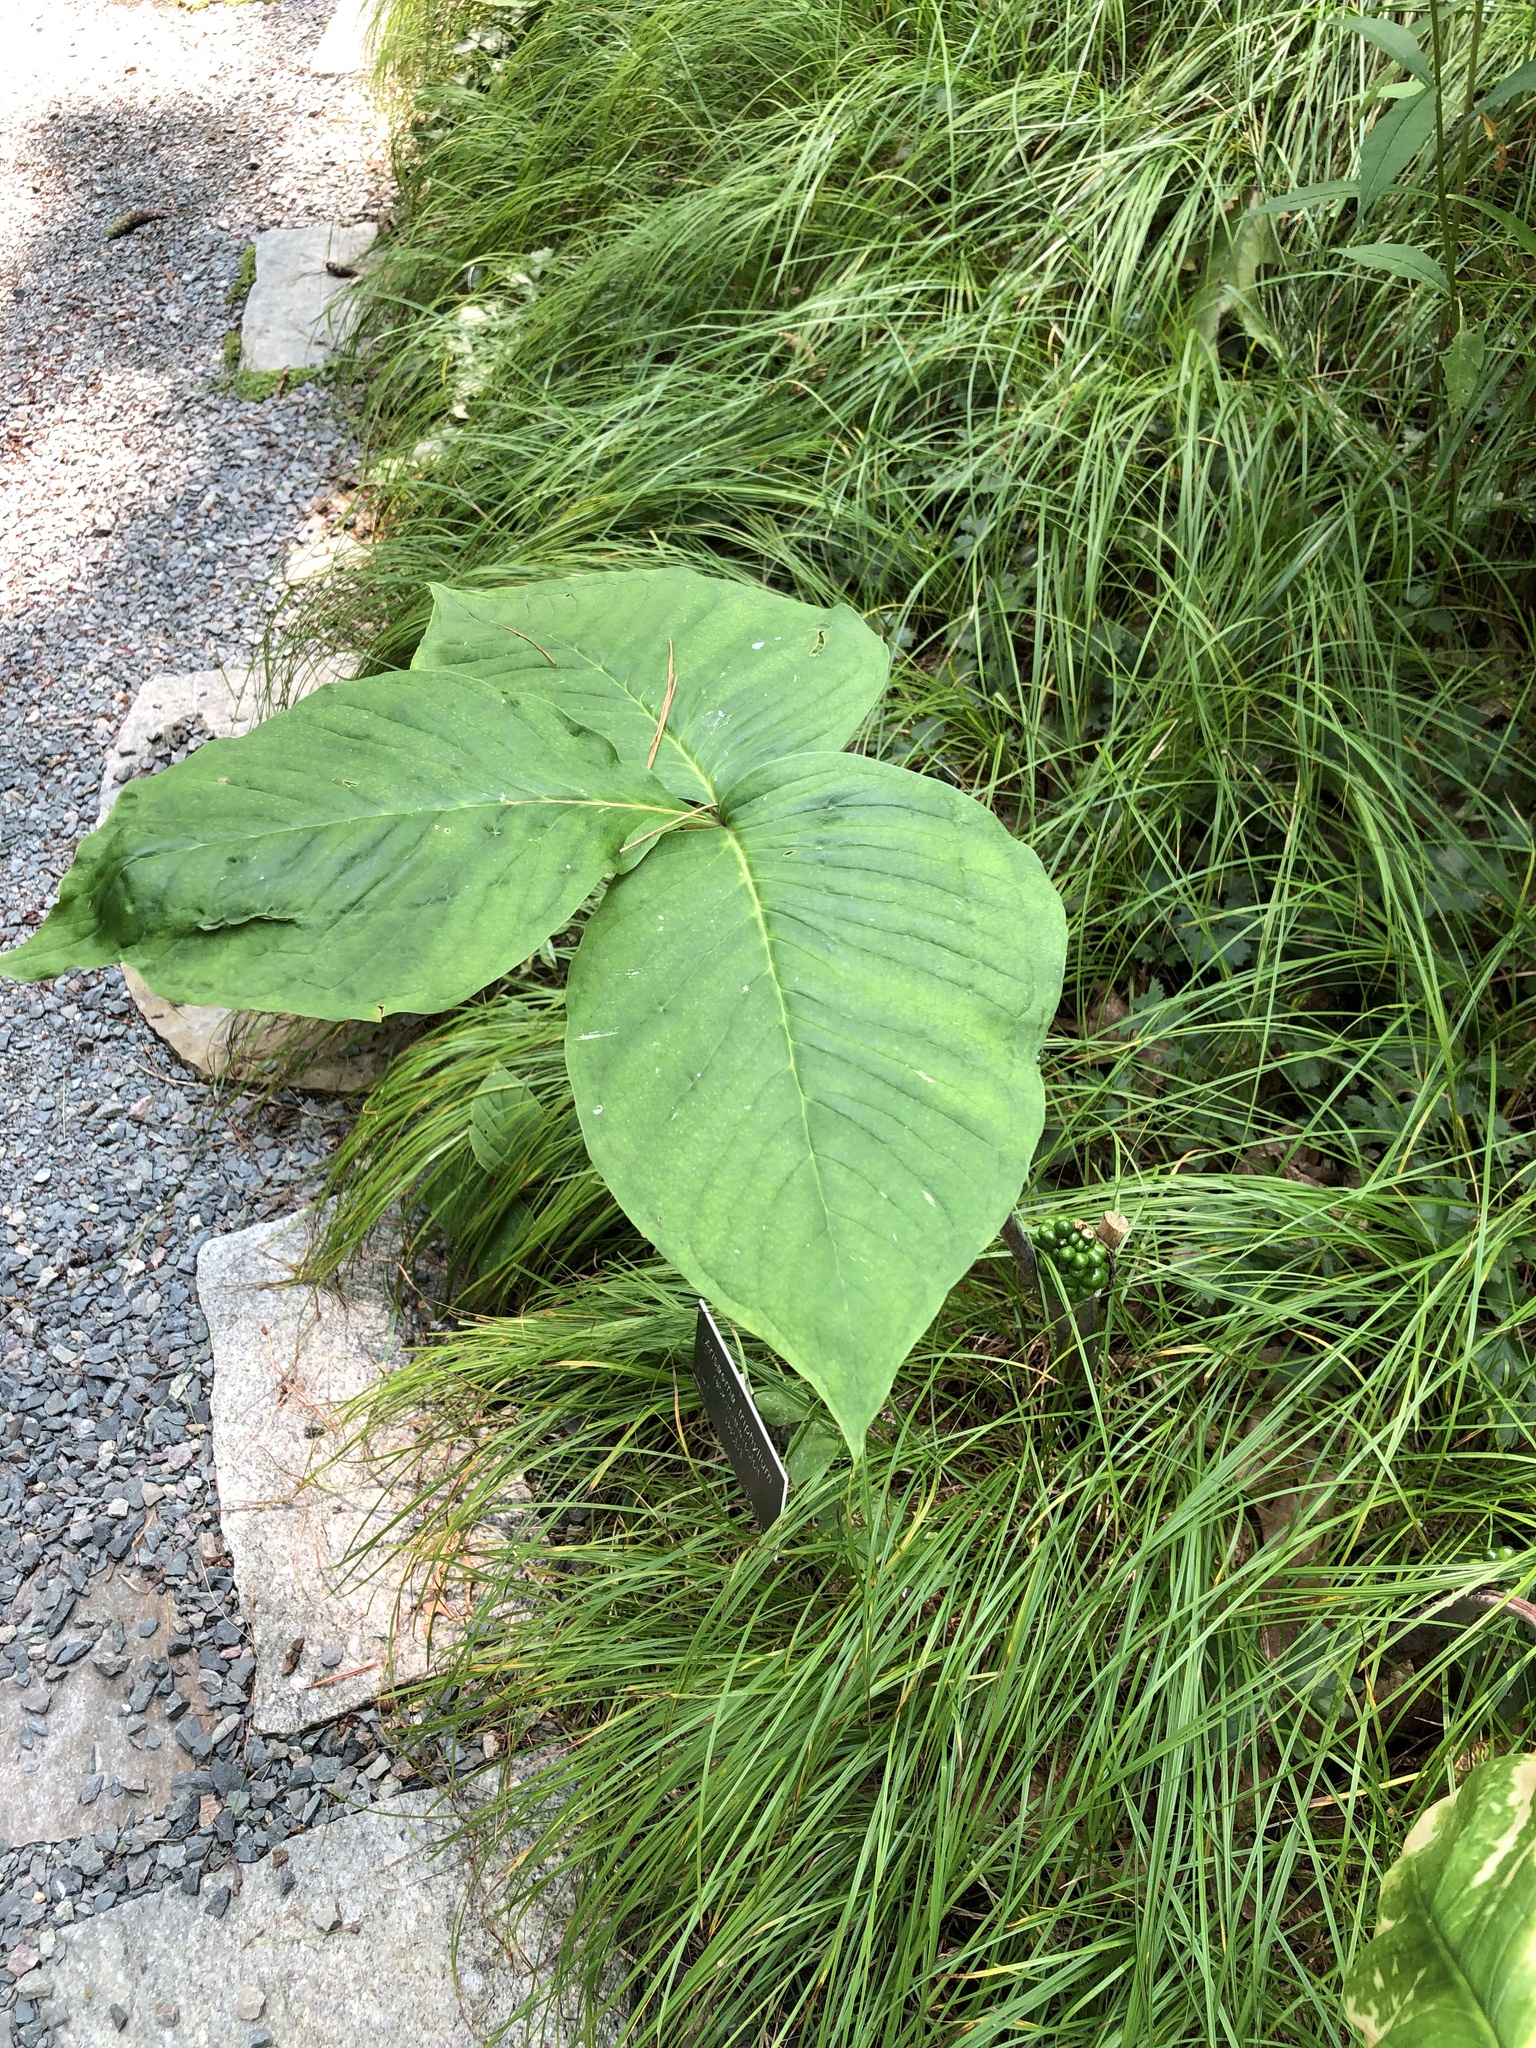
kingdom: Plantae
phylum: Tracheophyta
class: Liliopsida
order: Alismatales
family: Araceae
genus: Arisaema
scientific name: Arisaema triphyllum
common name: Jack-in-the-pulpit
